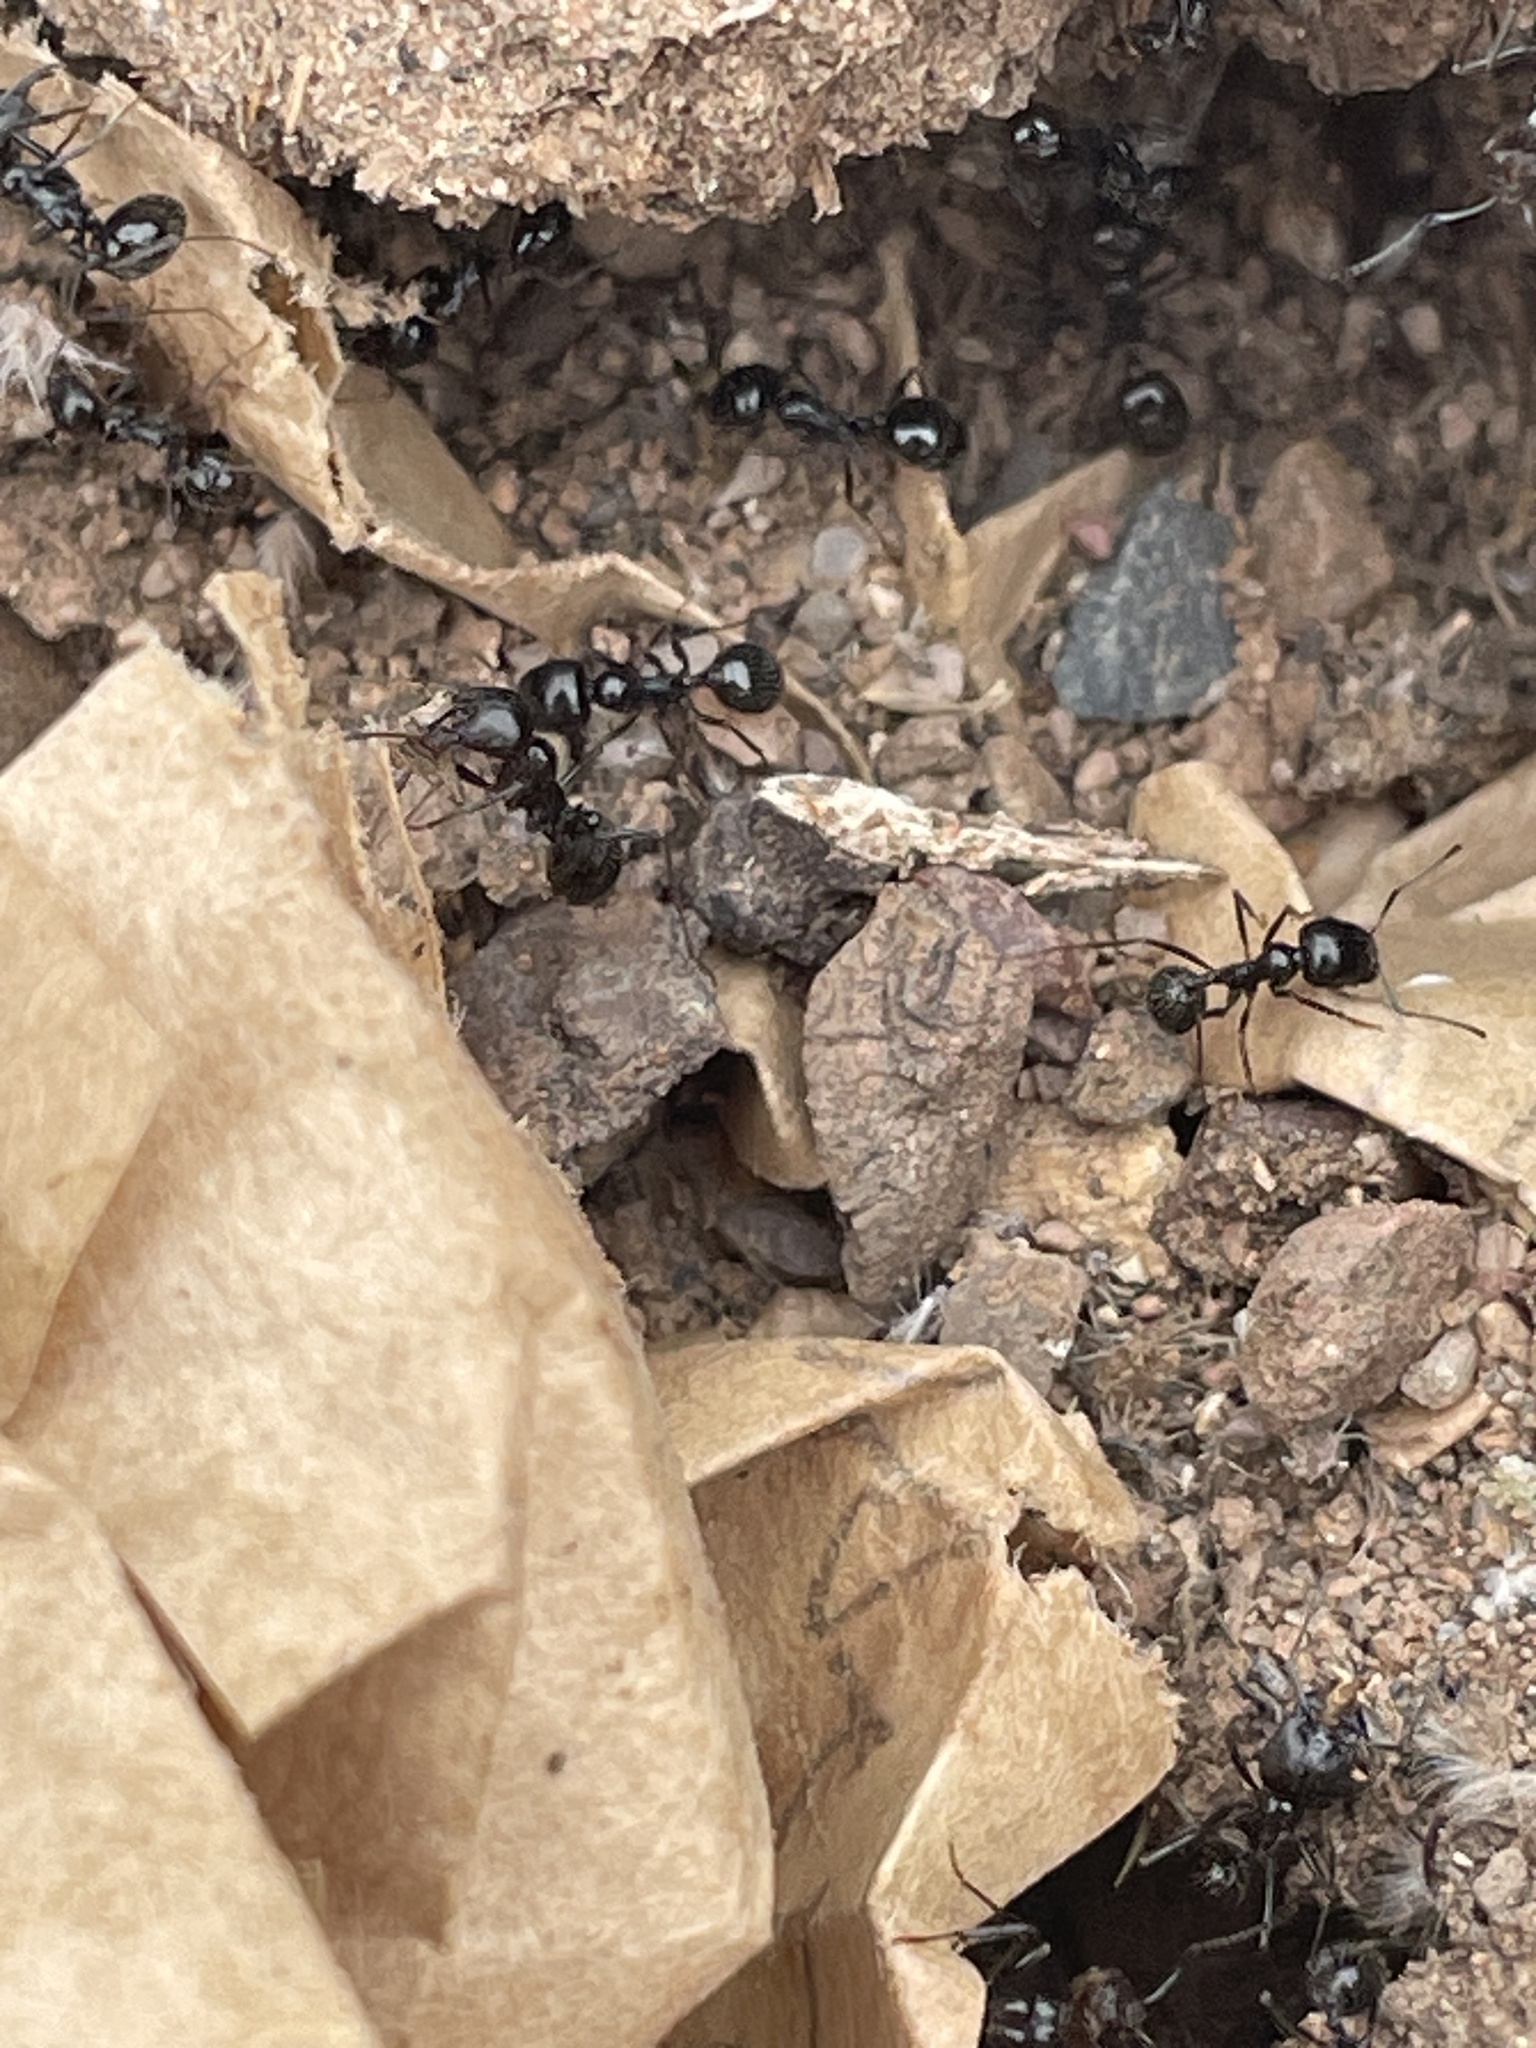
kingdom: Animalia
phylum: Arthropoda
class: Insecta
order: Hymenoptera
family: Formicidae
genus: Messor
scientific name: Messor pergandei
